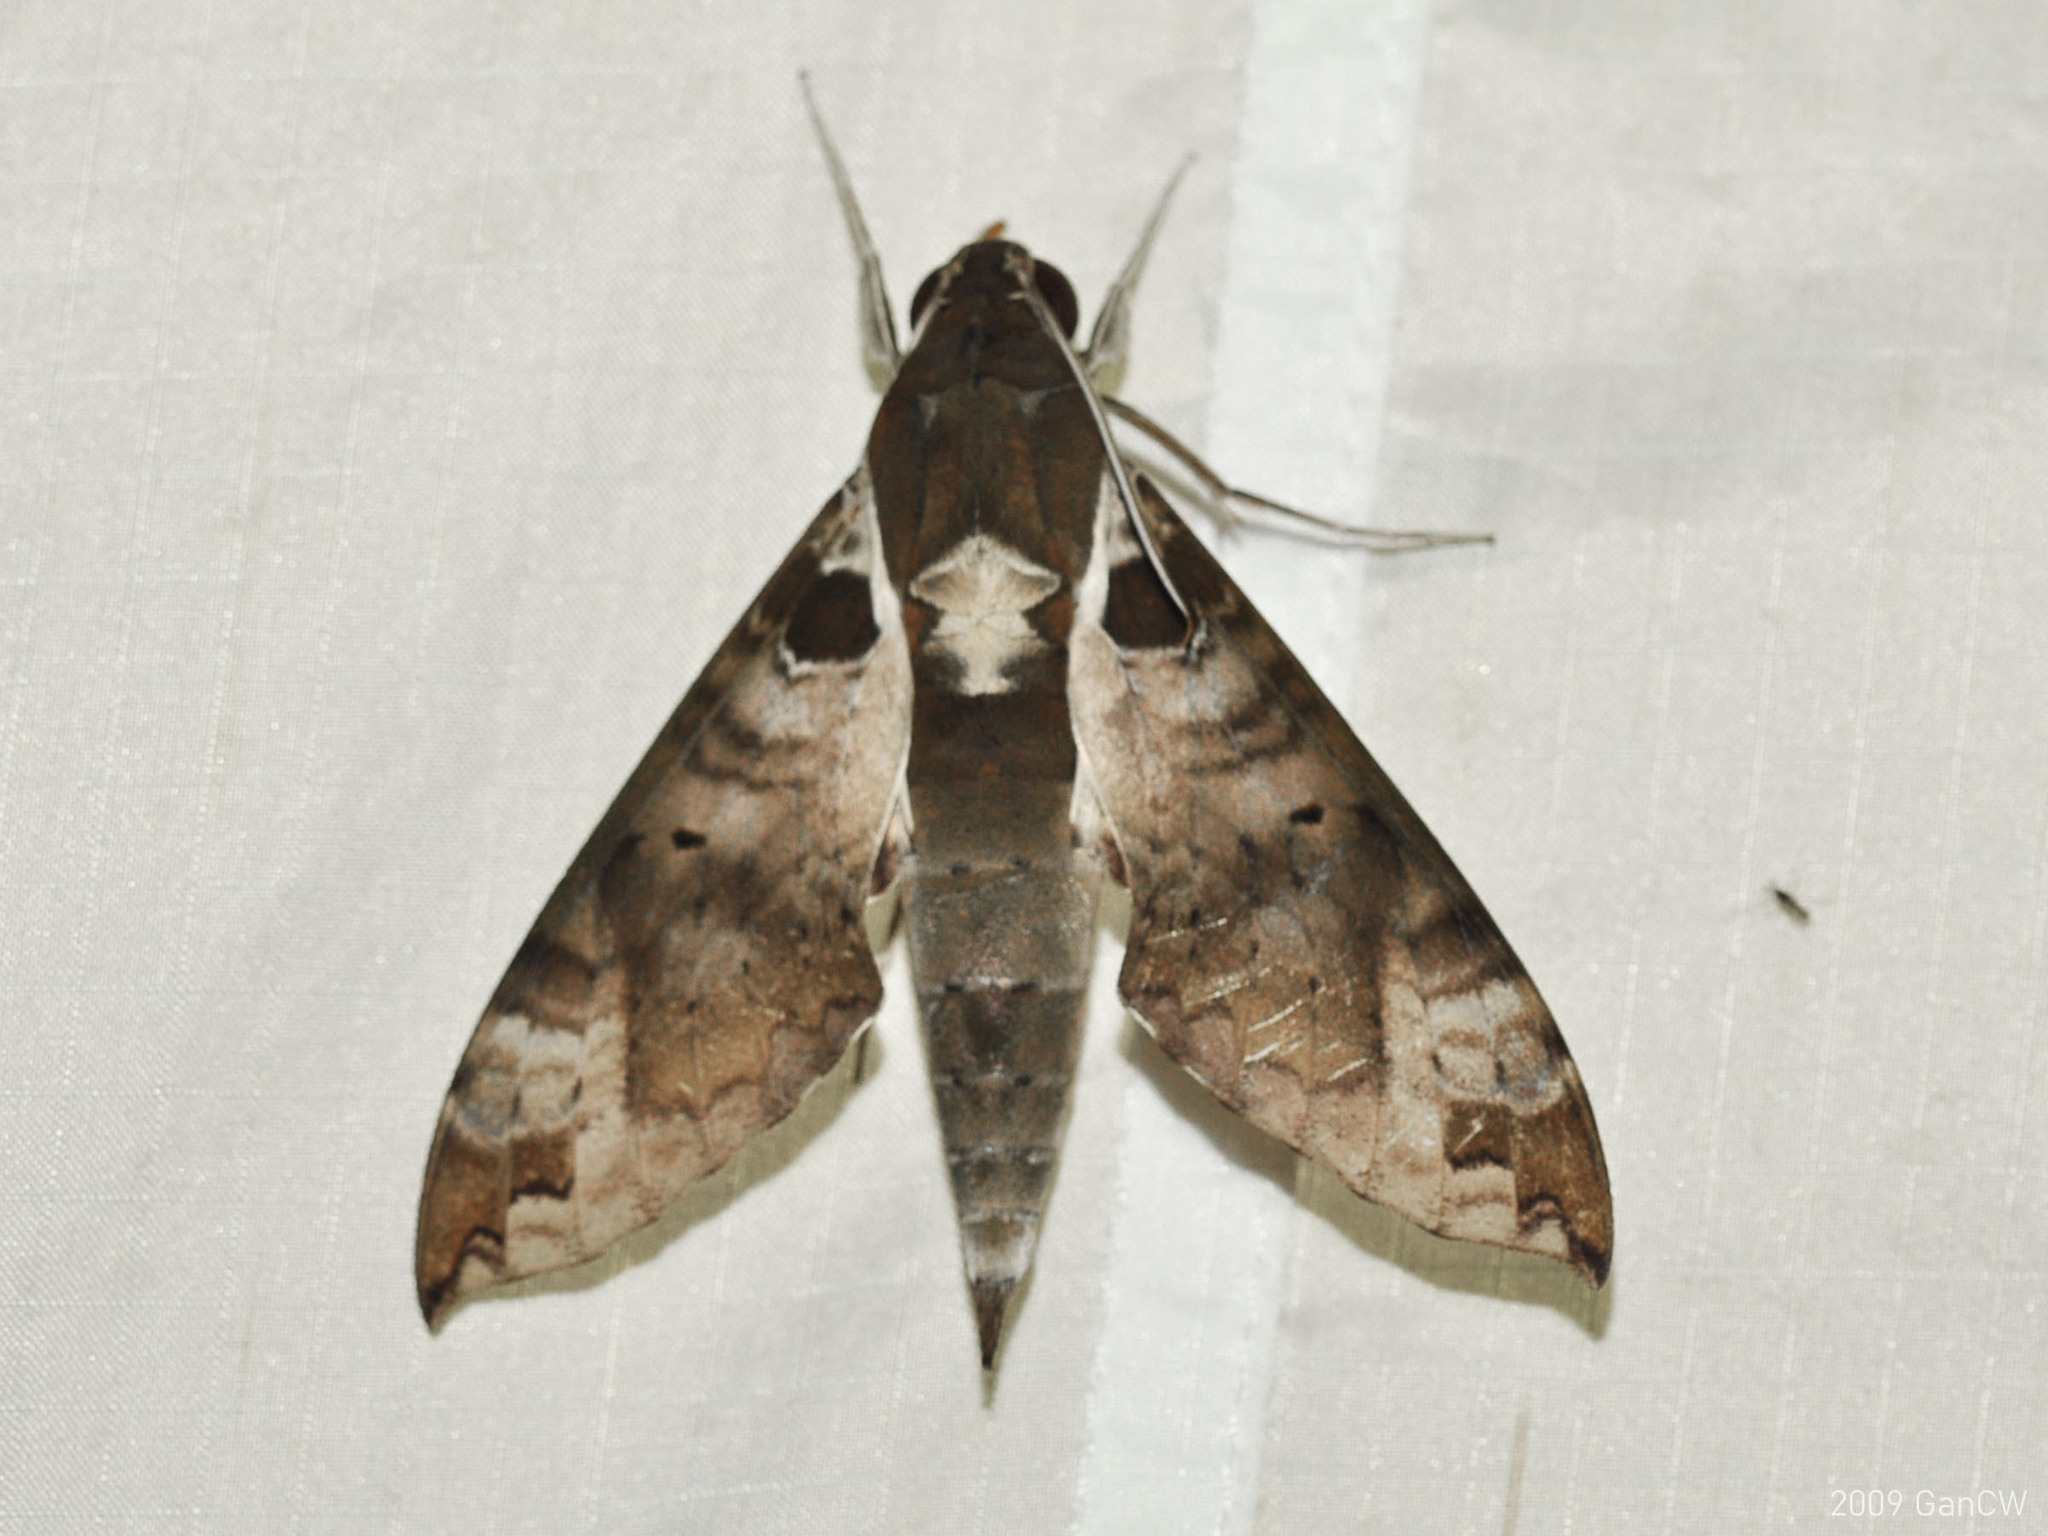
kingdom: Animalia
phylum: Arthropoda
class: Insecta
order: Lepidoptera
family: Sphingidae
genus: Cechenena
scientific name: Cechenena helops
